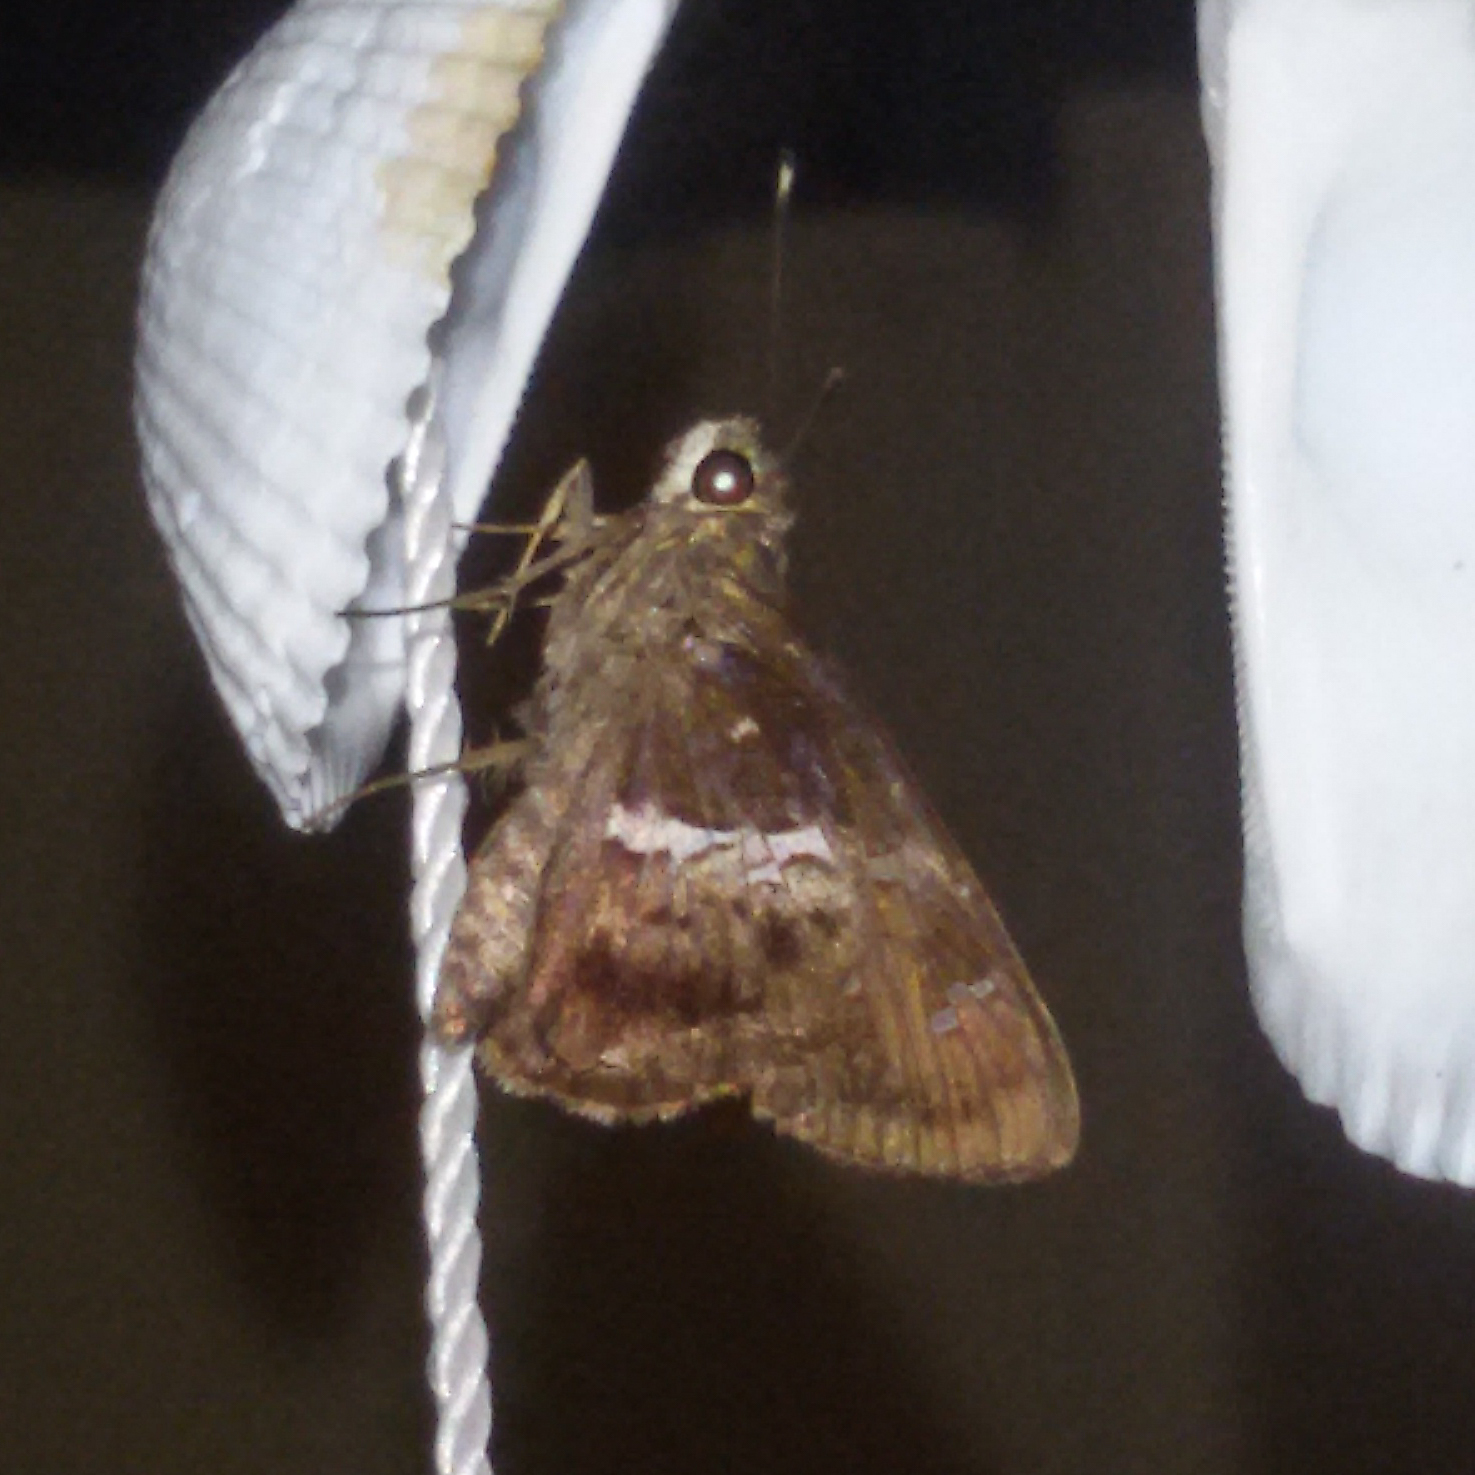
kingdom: Animalia
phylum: Arthropoda
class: Insecta
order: Lepidoptera
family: Hesperiidae
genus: Hyarotis
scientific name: Hyarotis adrastus
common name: Tree flitter
